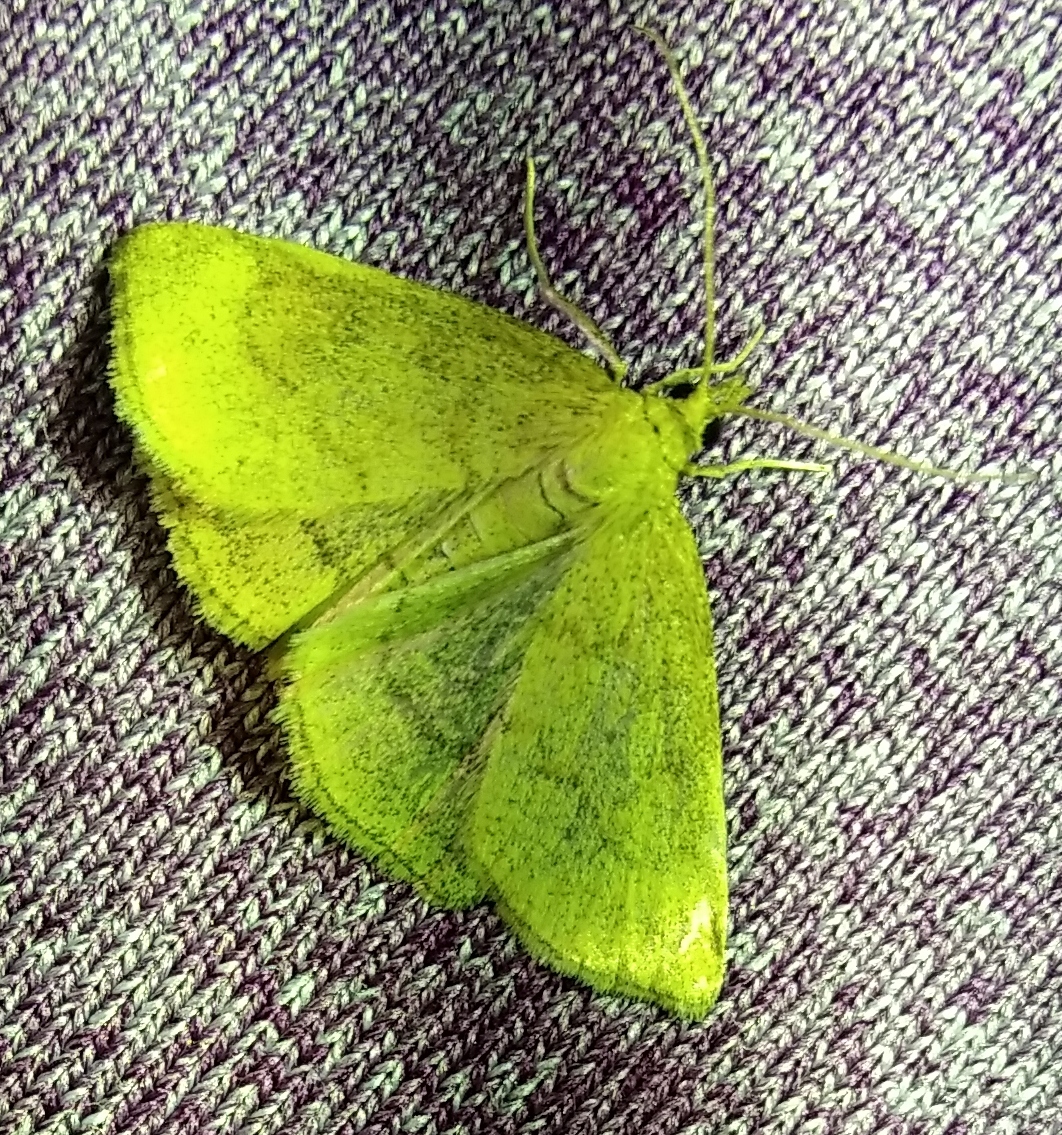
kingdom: Animalia
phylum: Arthropoda
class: Insecta
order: Lepidoptera
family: Crambidae
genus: Psammotis
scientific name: Psammotis viminalis
